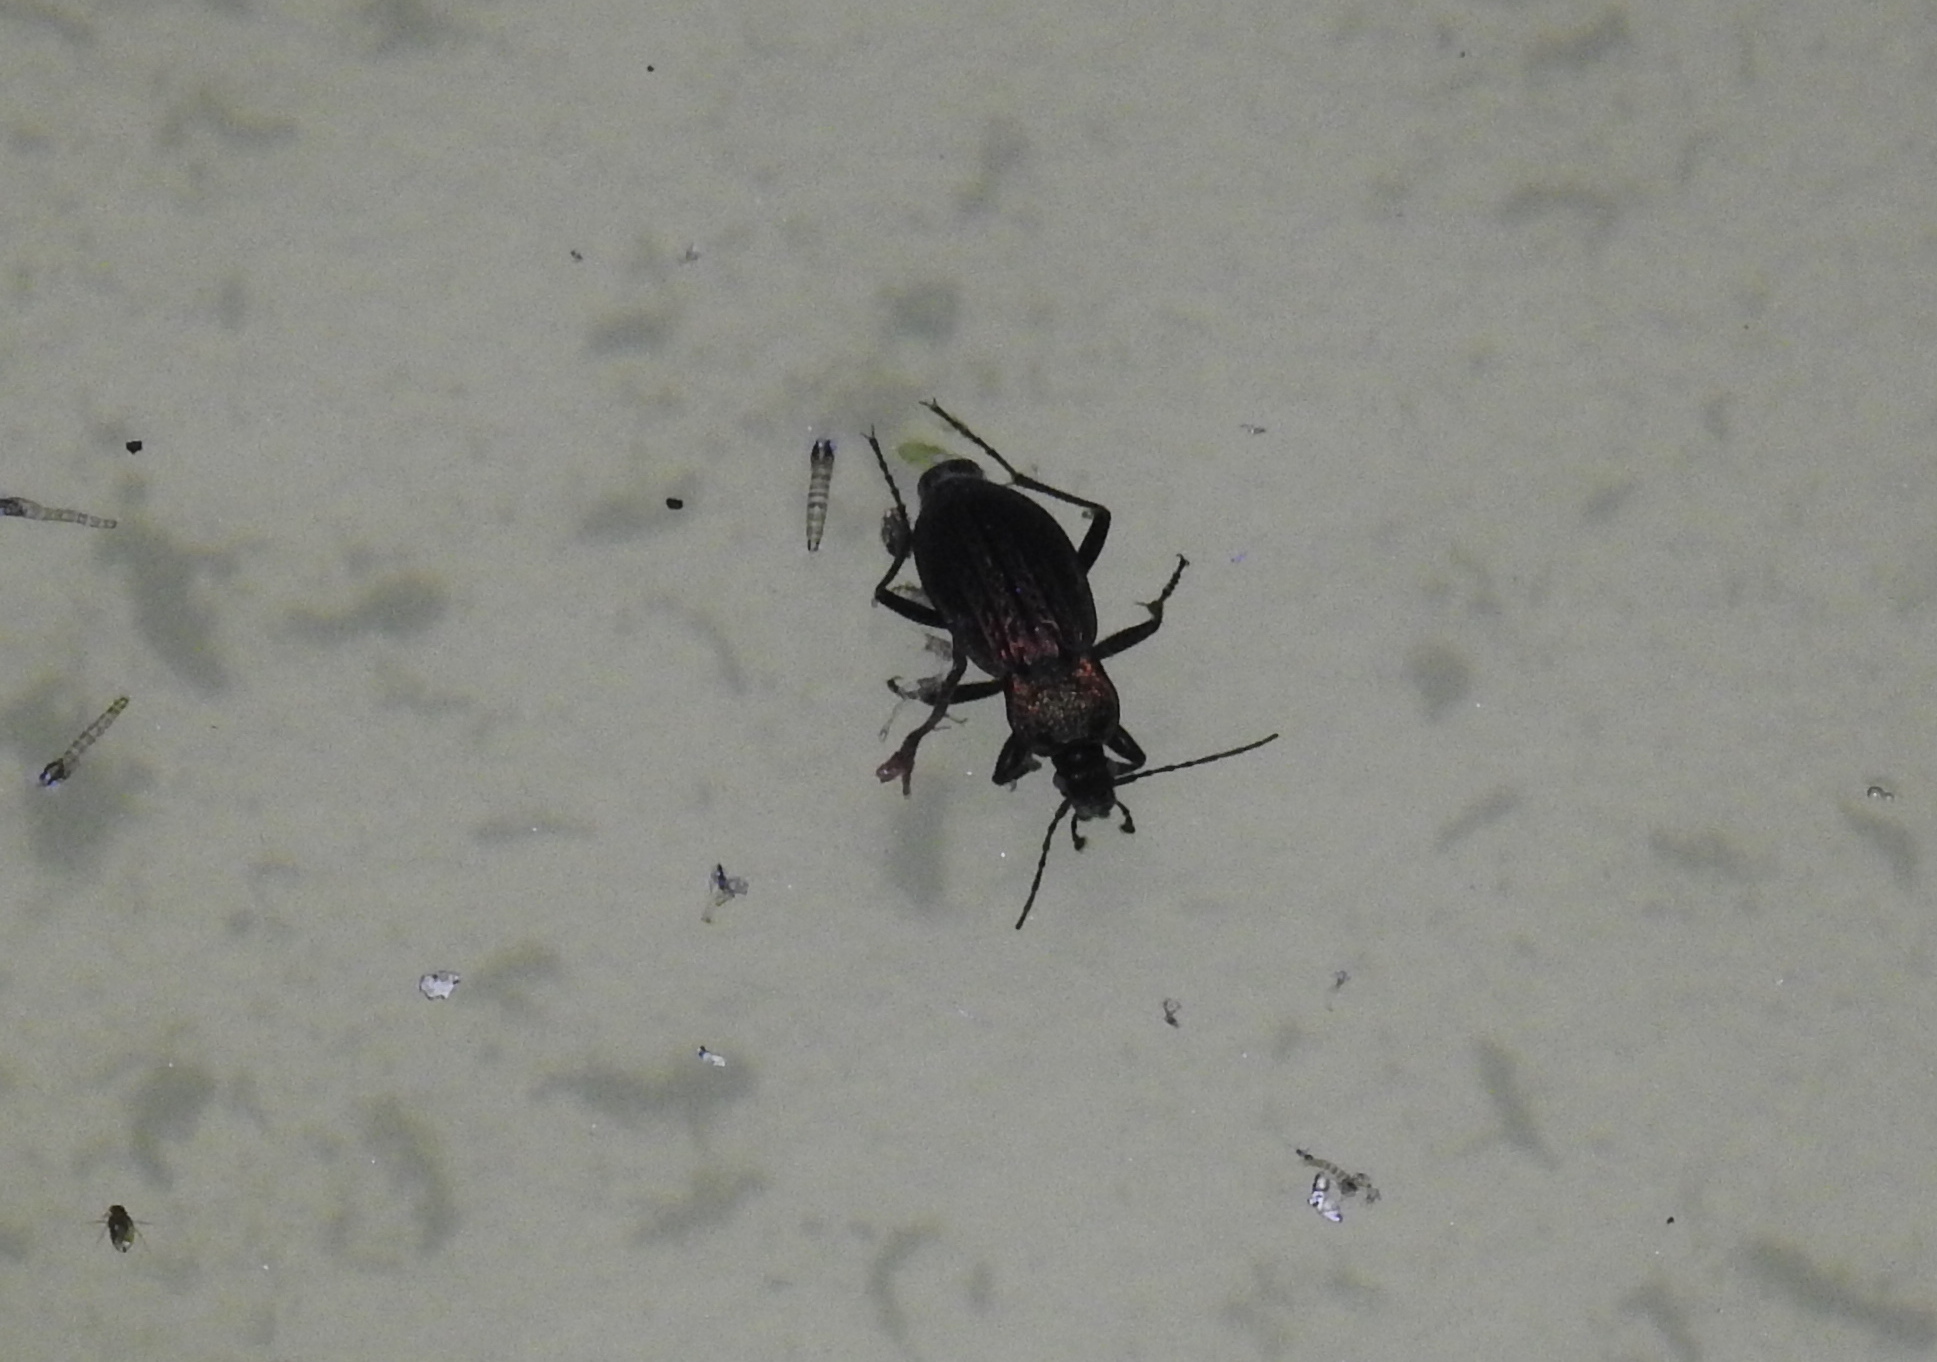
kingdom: Animalia
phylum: Arthropoda
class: Insecta
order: Coleoptera
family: Carabidae
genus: Carabus
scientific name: Carabus rugosus
